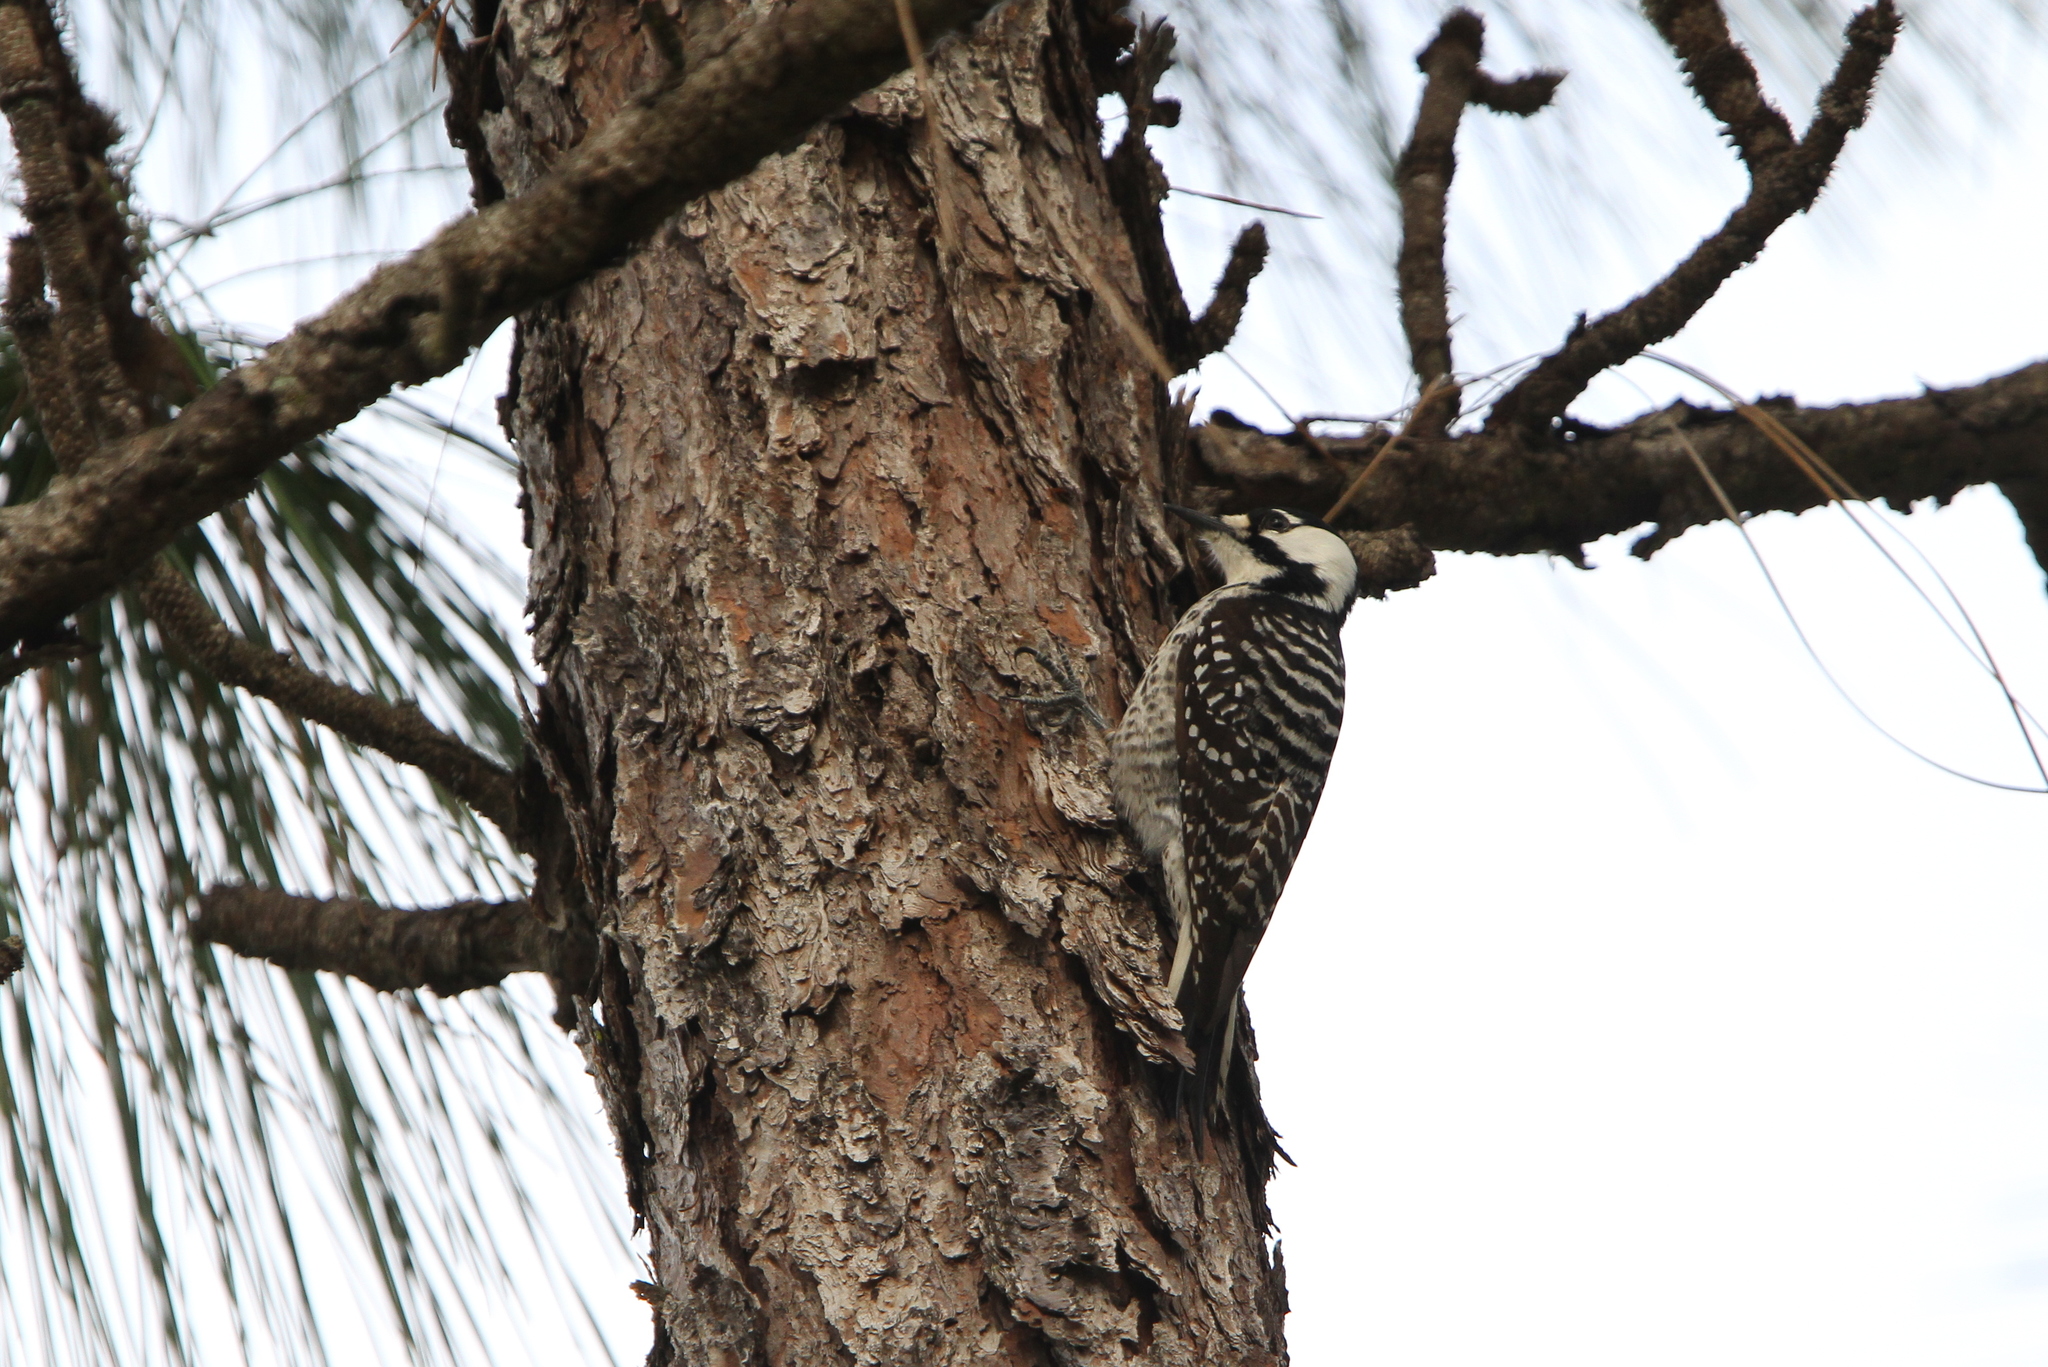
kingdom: Animalia
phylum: Chordata
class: Aves
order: Piciformes
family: Picidae
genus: Leuconotopicus
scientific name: Leuconotopicus borealis
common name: Red-cockaded woodpecker
